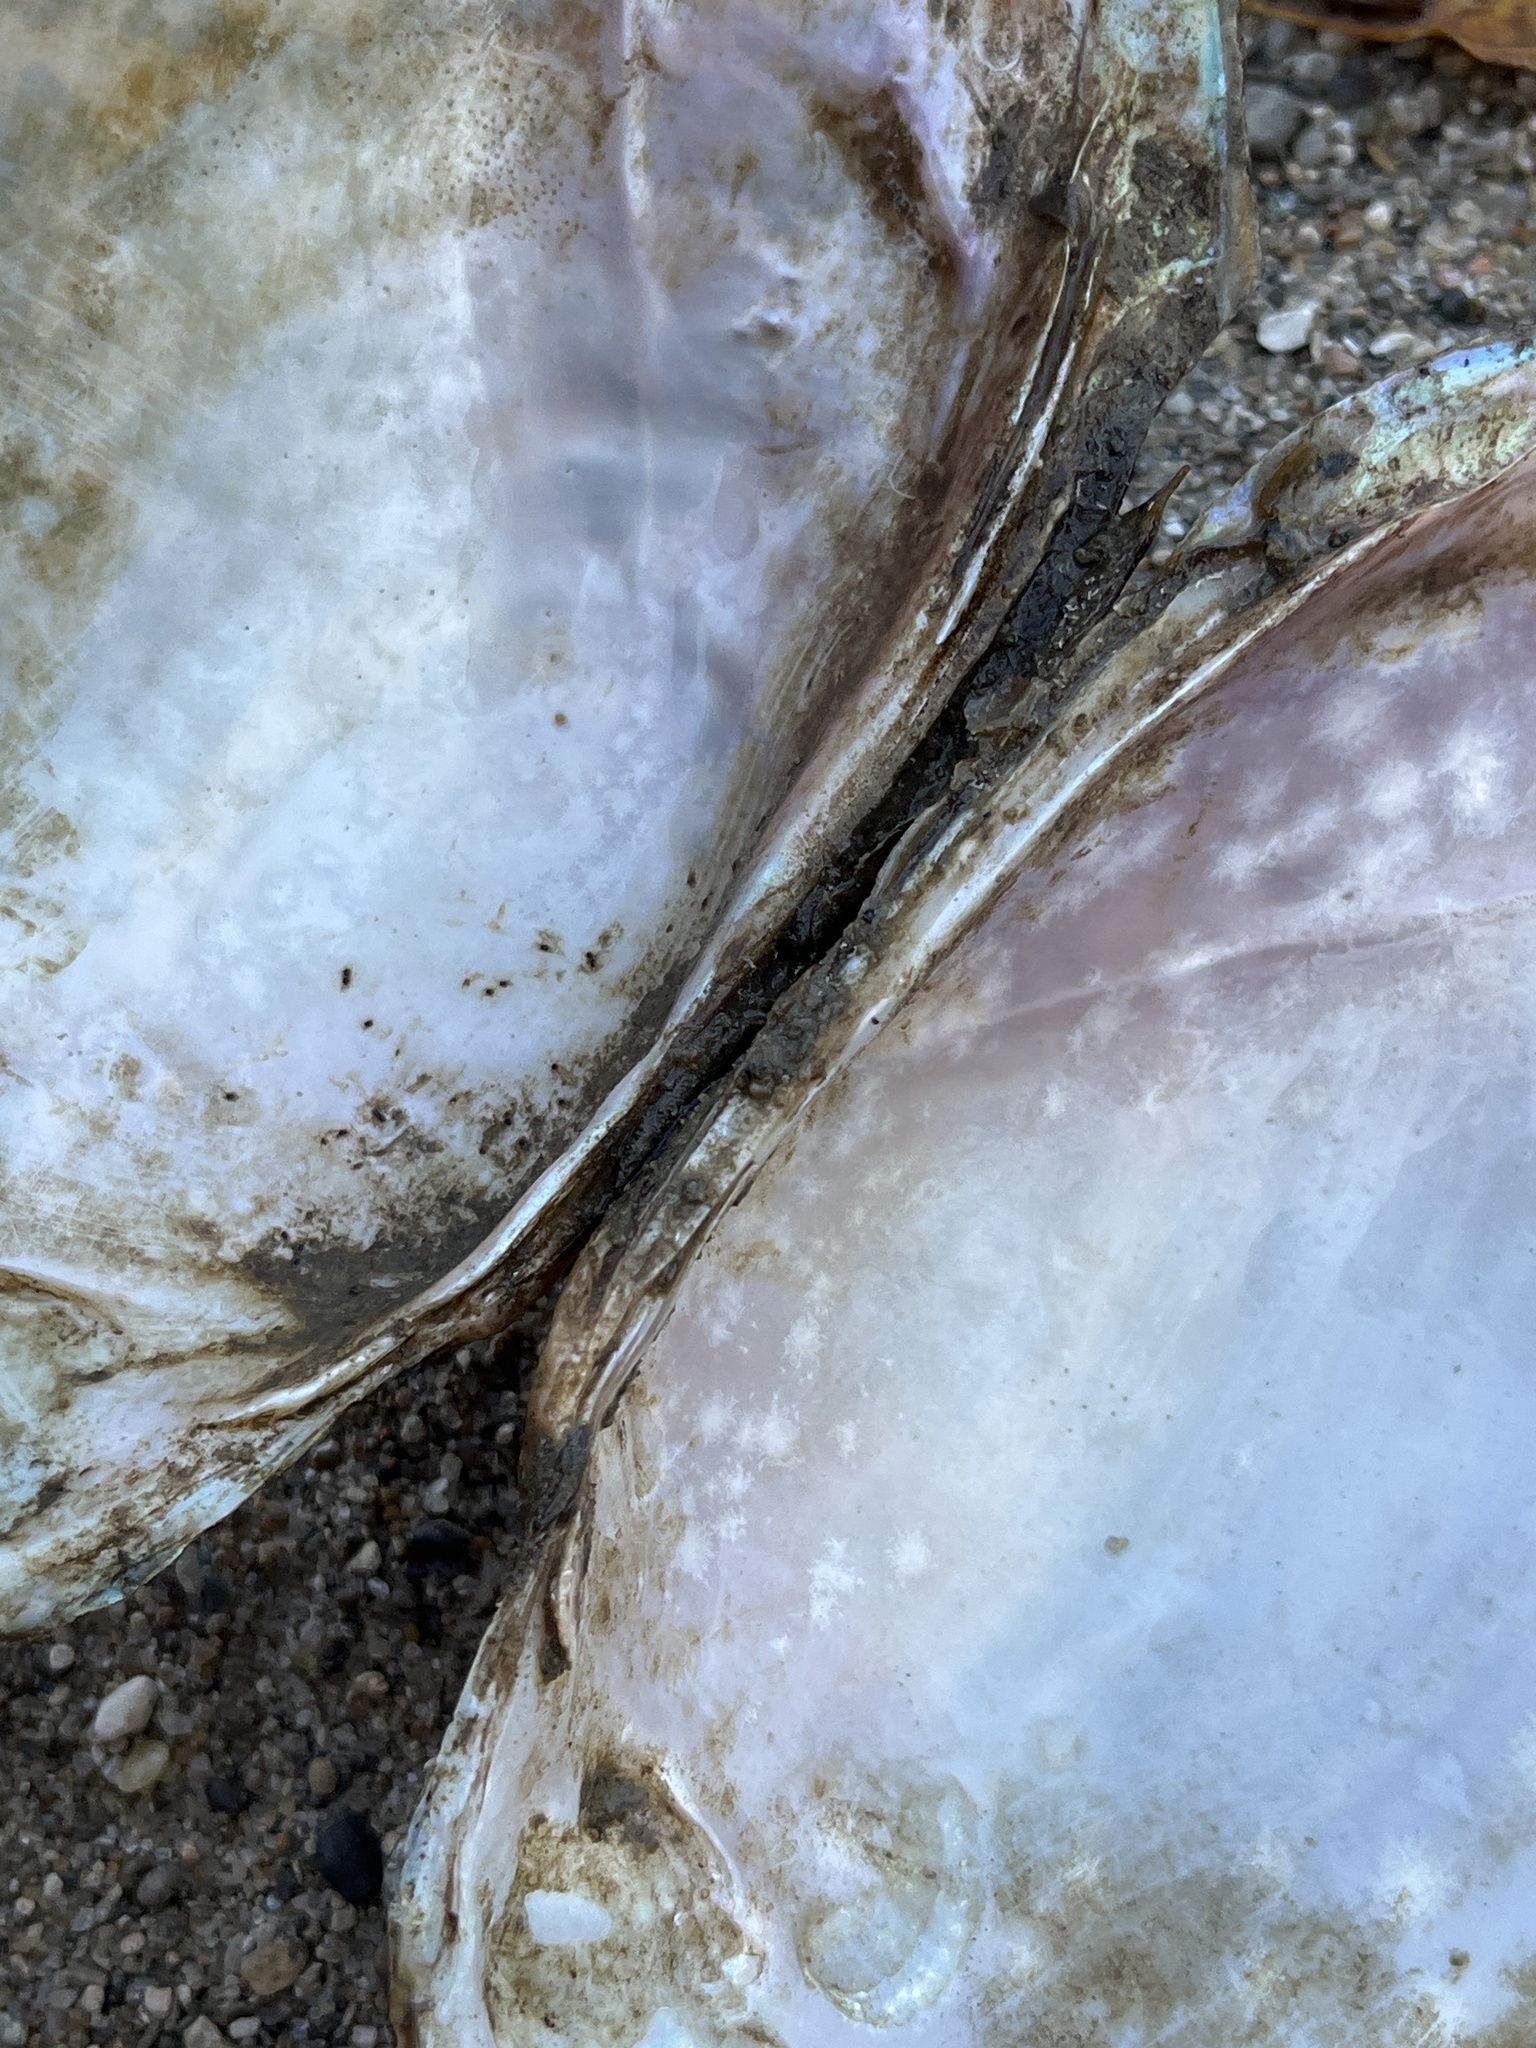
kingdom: Animalia
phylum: Mollusca
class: Bivalvia
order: Unionida
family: Unionidae
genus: Potamilus
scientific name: Potamilus fragilis
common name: Fragile papershell
